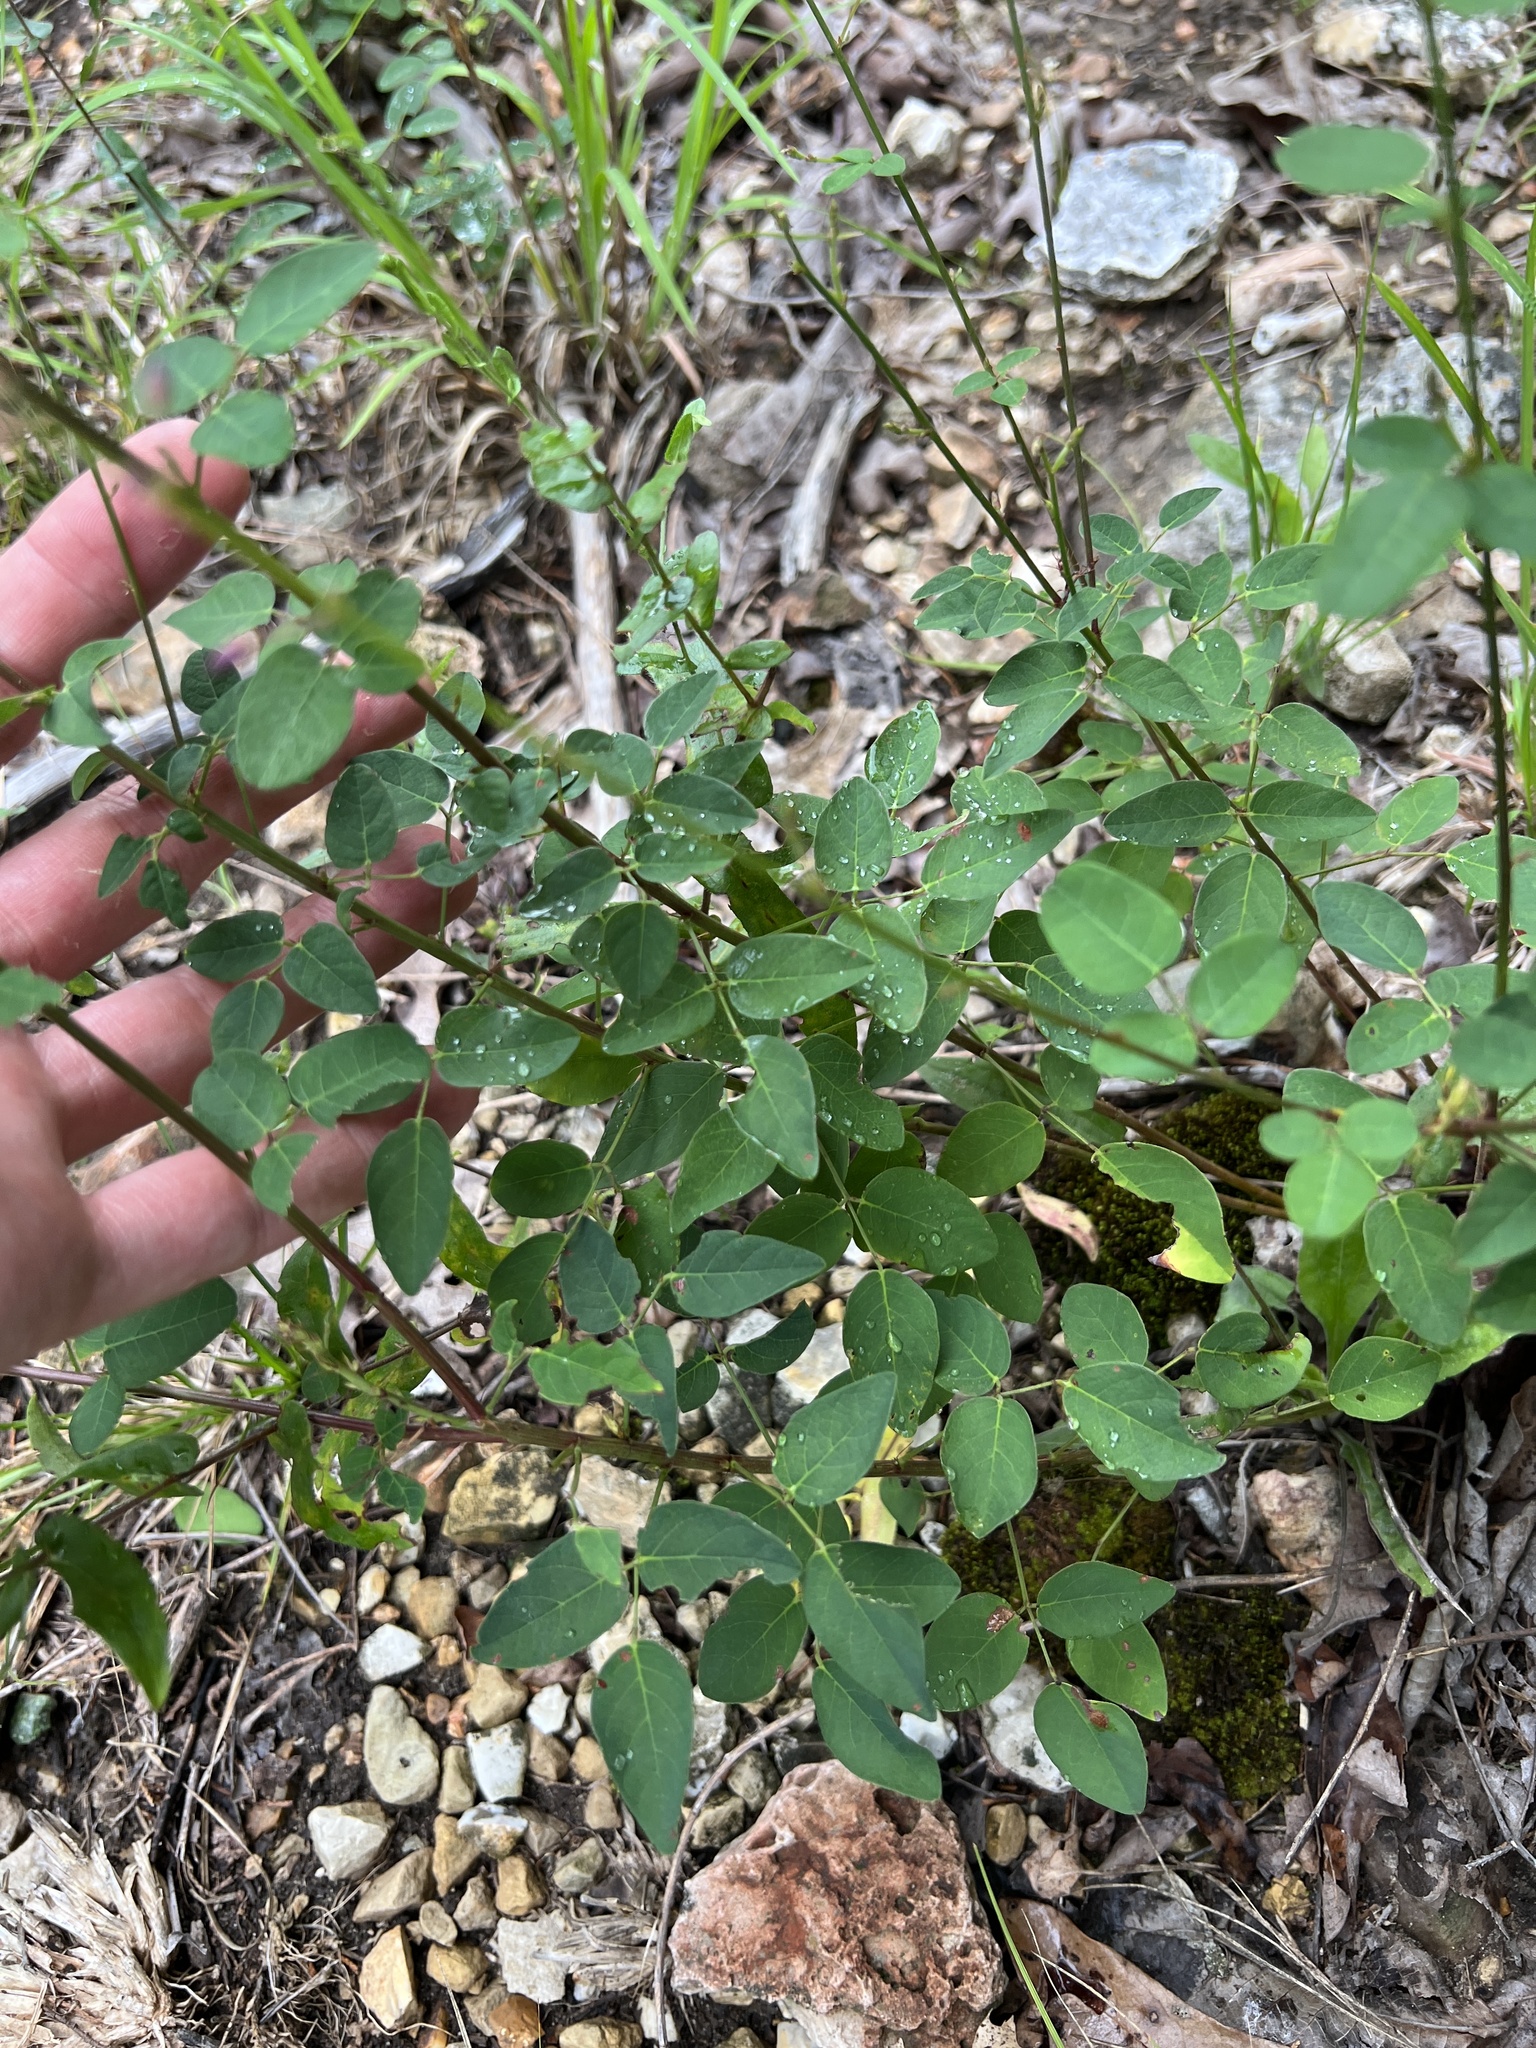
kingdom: Plantae
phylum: Tracheophyta
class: Magnoliopsida
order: Fabales
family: Fabaceae
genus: Desmodium
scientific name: Desmodium marilandicum
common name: Maryland tick-trefoil
